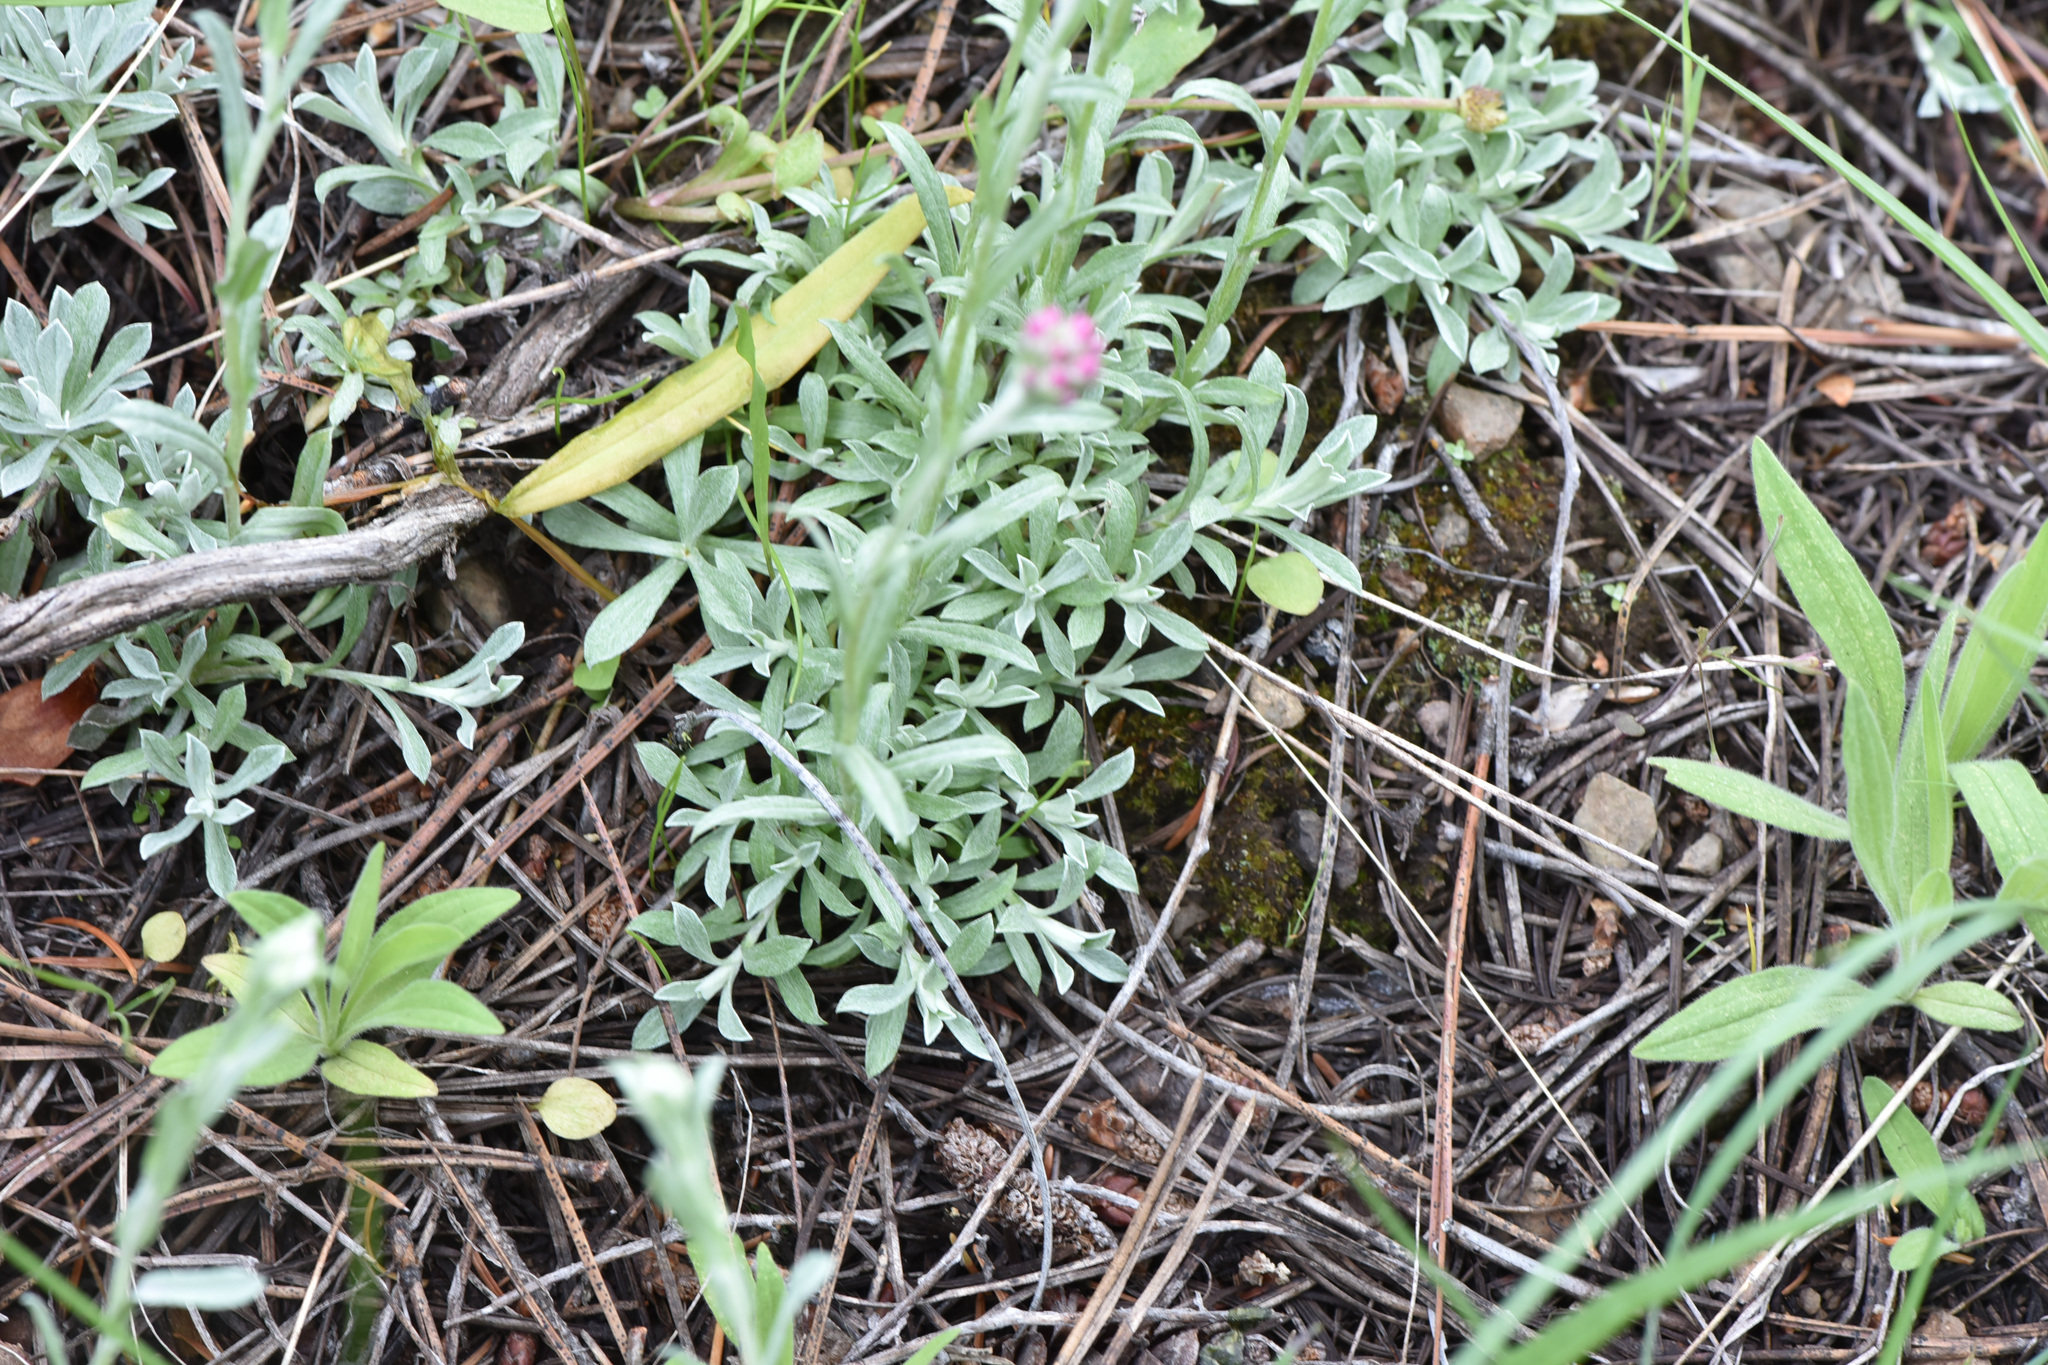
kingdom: Plantae
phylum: Tracheophyta
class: Magnoliopsida
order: Asterales
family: Asteraceae
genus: Antennaria
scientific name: Antennaria rosea
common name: Rosy pussytoes
